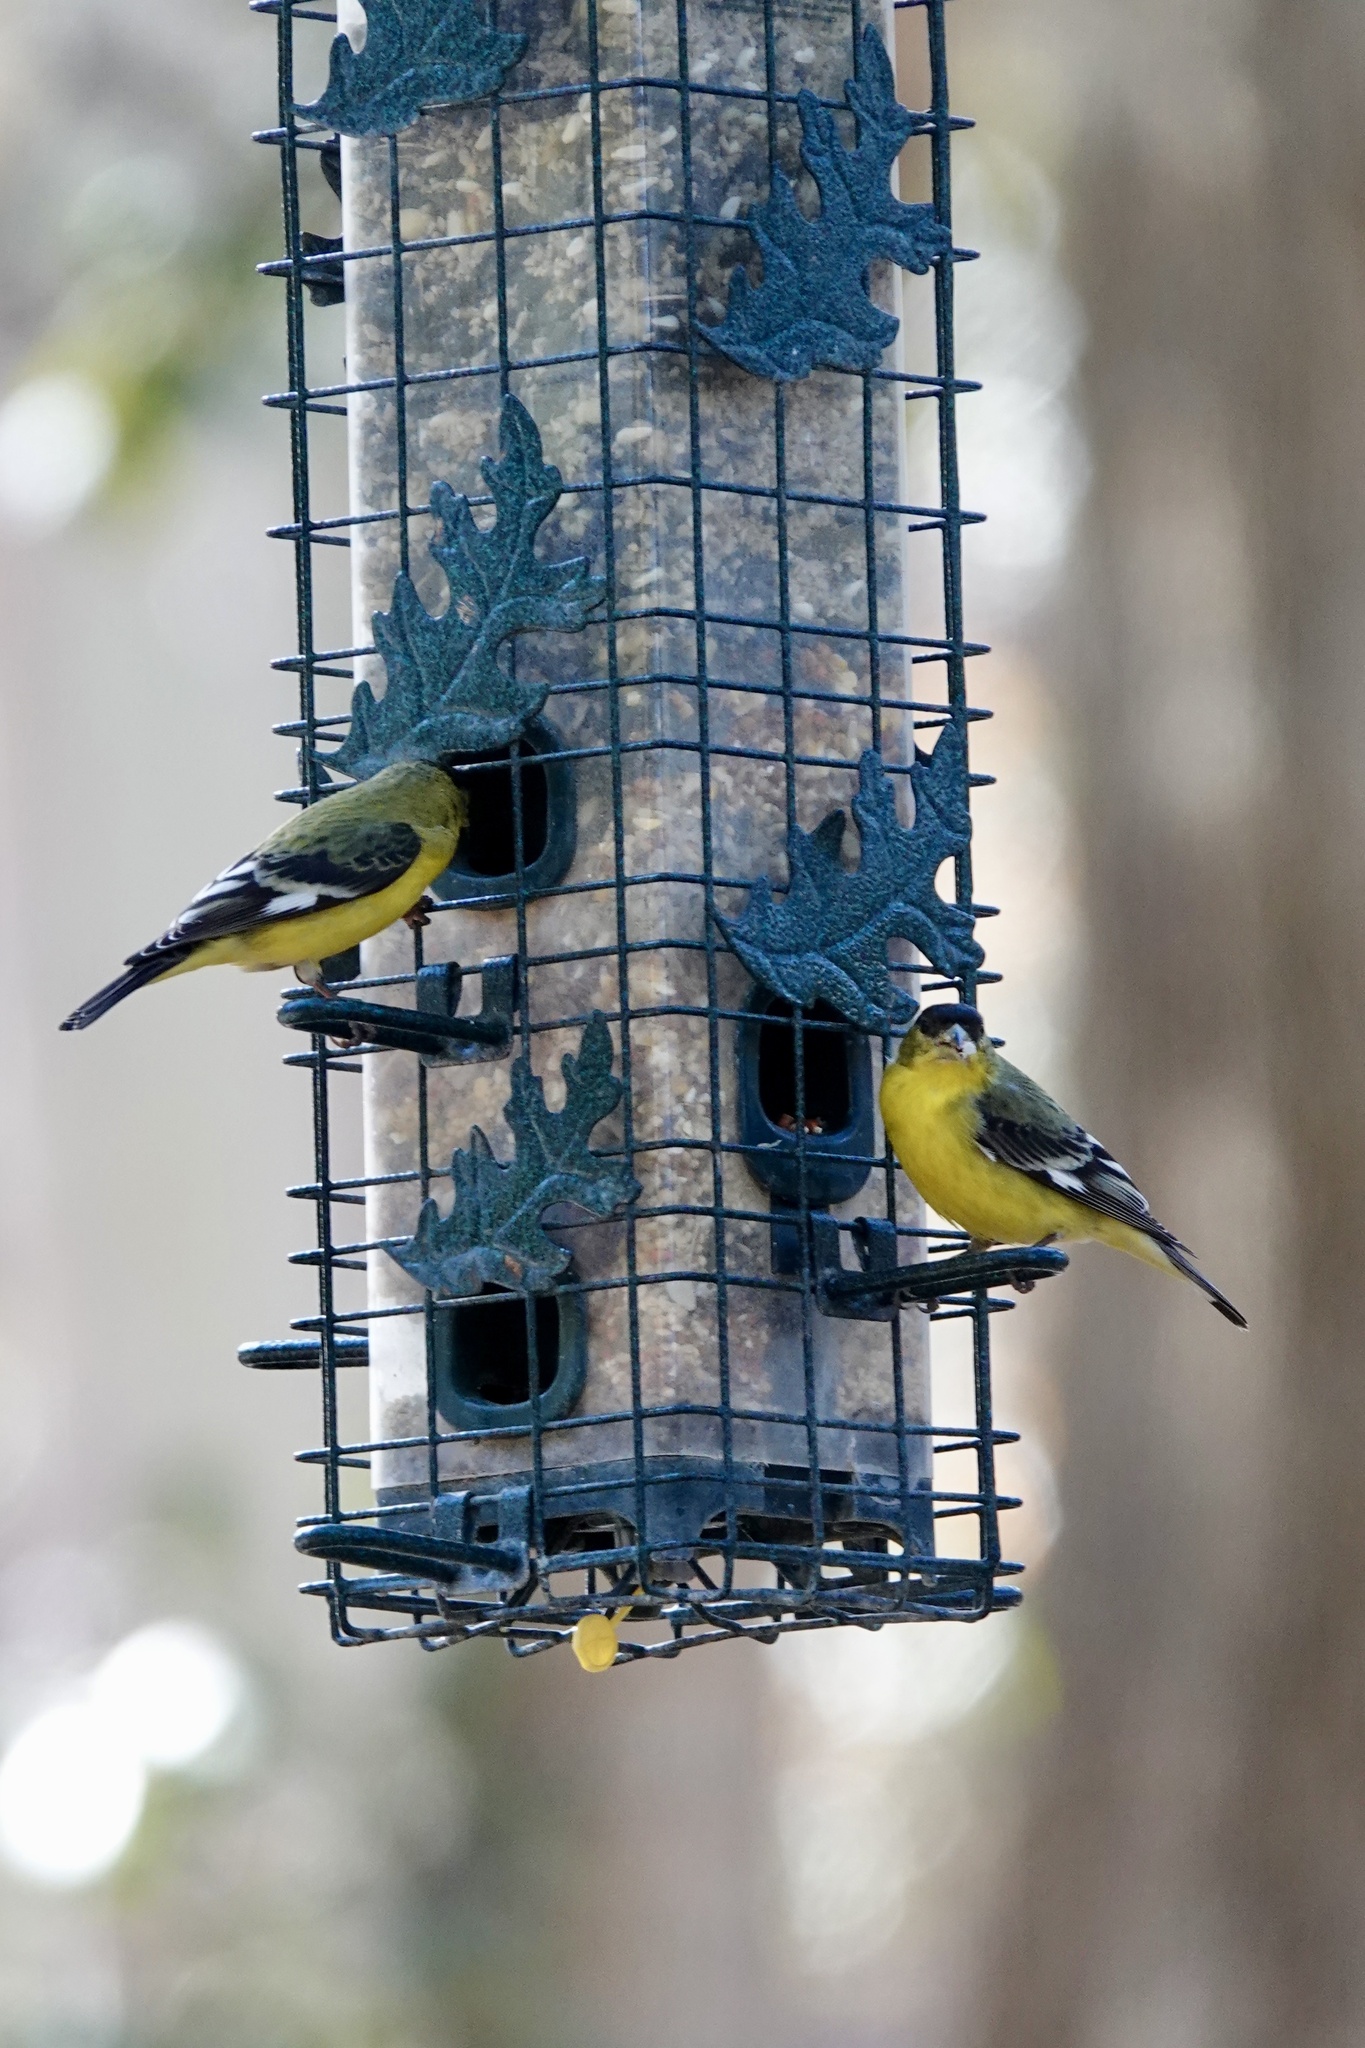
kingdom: Animalia
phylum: Chordata
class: Aves
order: Passeriformes
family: Fringillidae
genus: Spinus
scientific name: Spinus psaltria
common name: Lesser goldfinch
